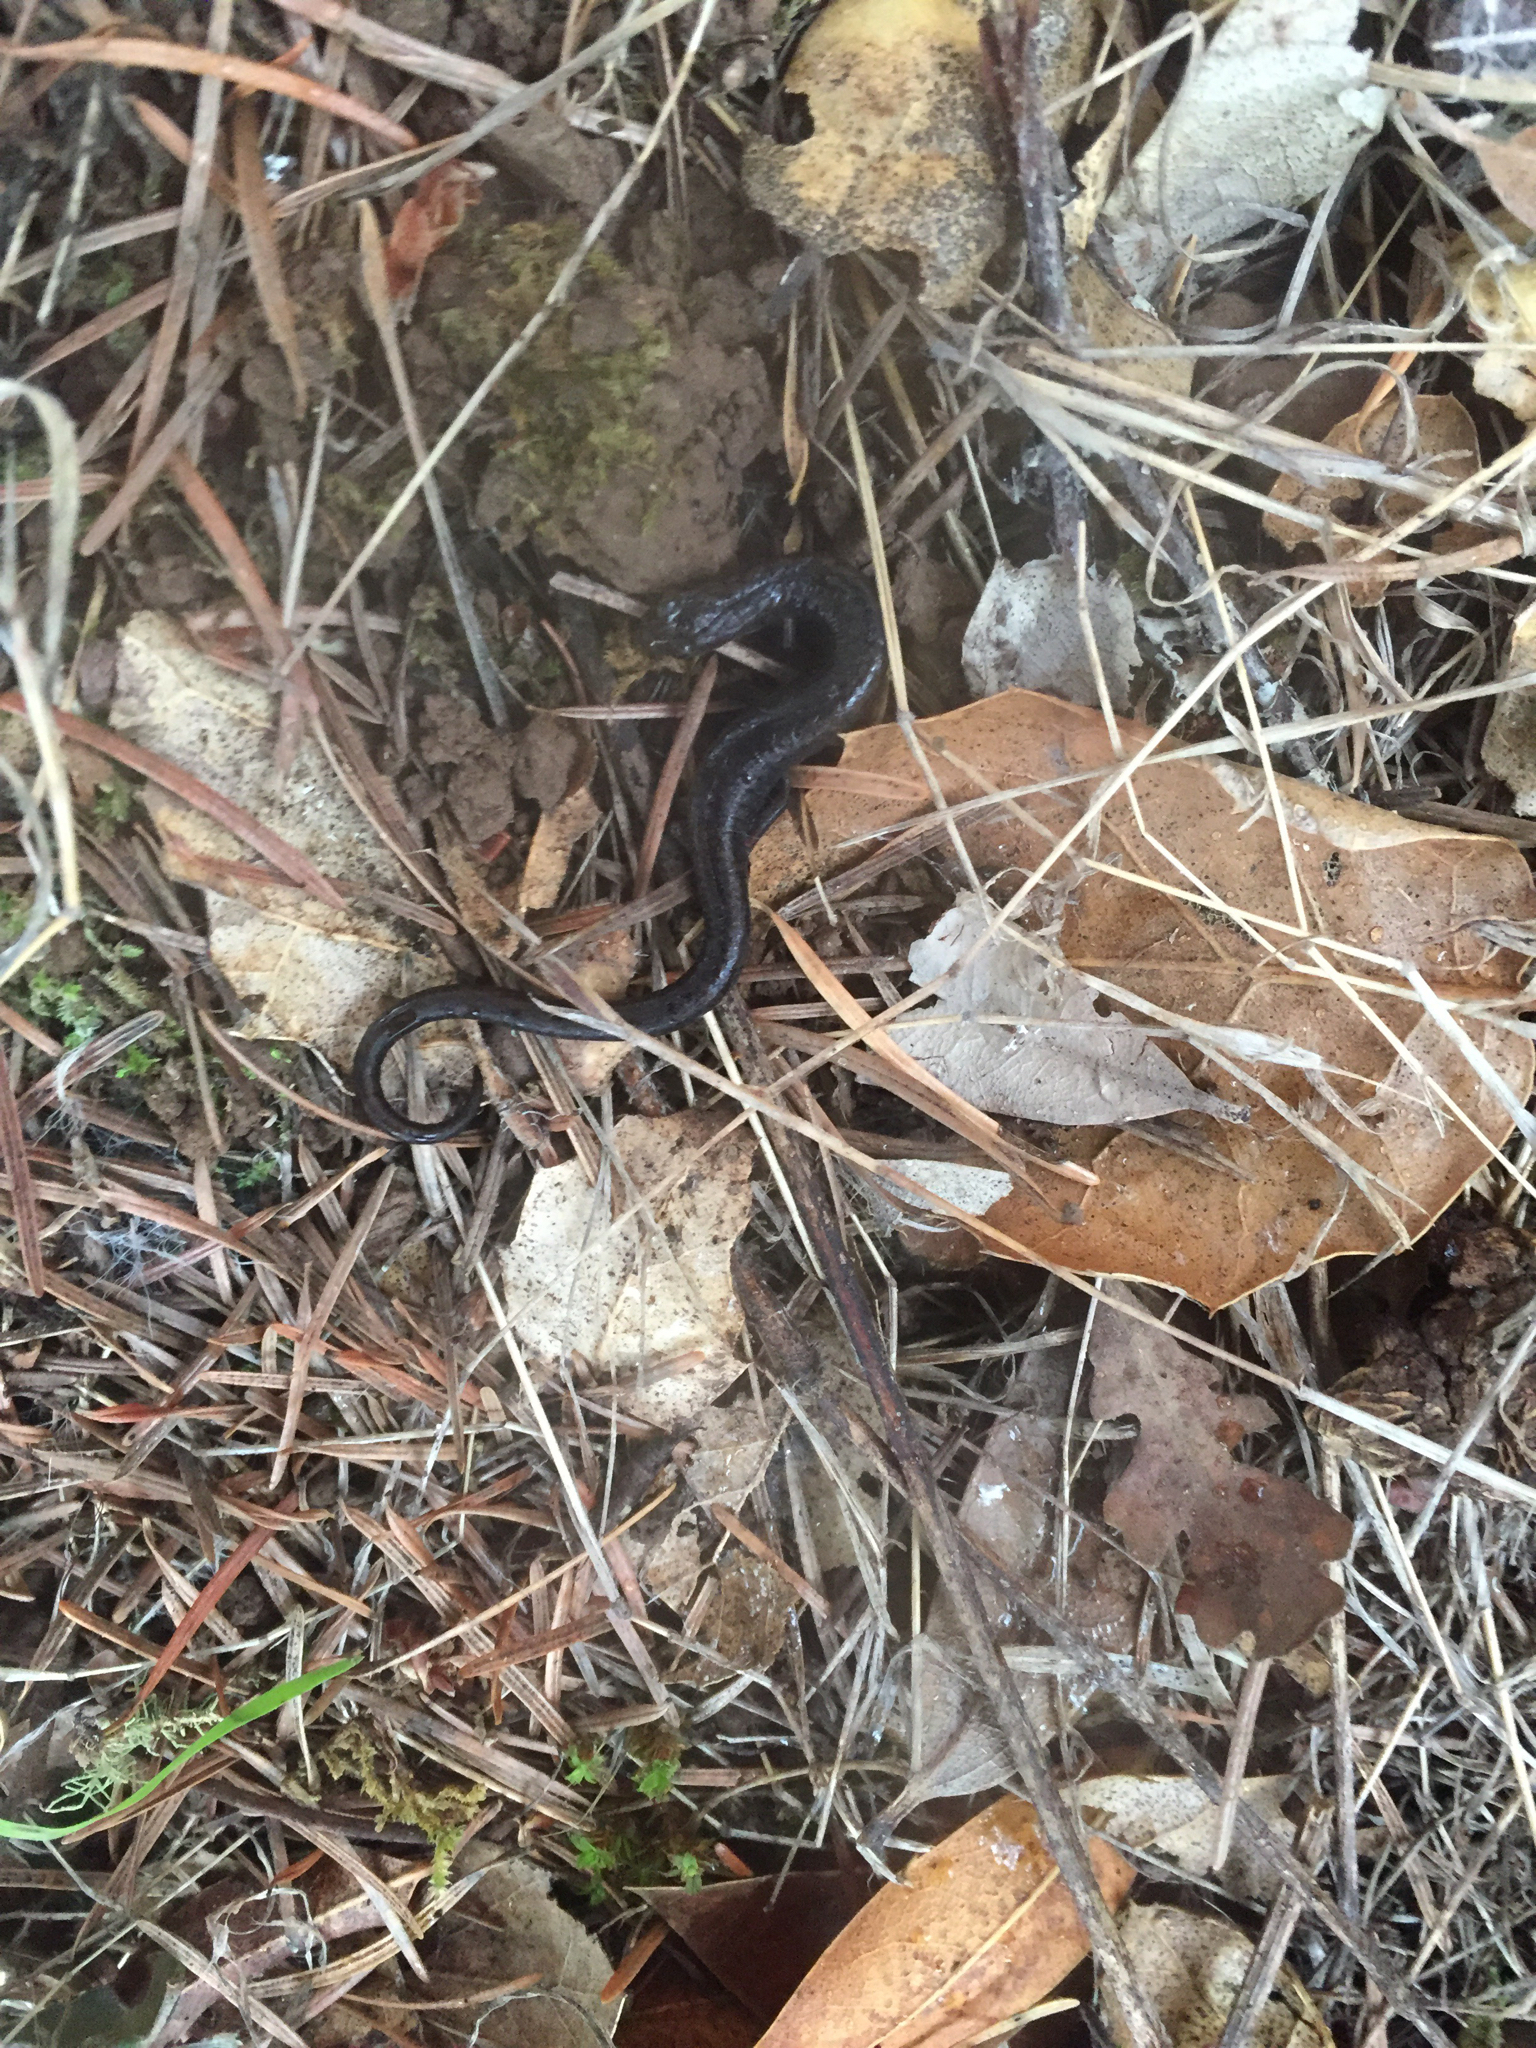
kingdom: Animalia
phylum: Chordata
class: Amphibia
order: Caudata
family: Plethodontidae
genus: Batrachoseps
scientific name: Batrachoseps attenuatus
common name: California slender salamander
